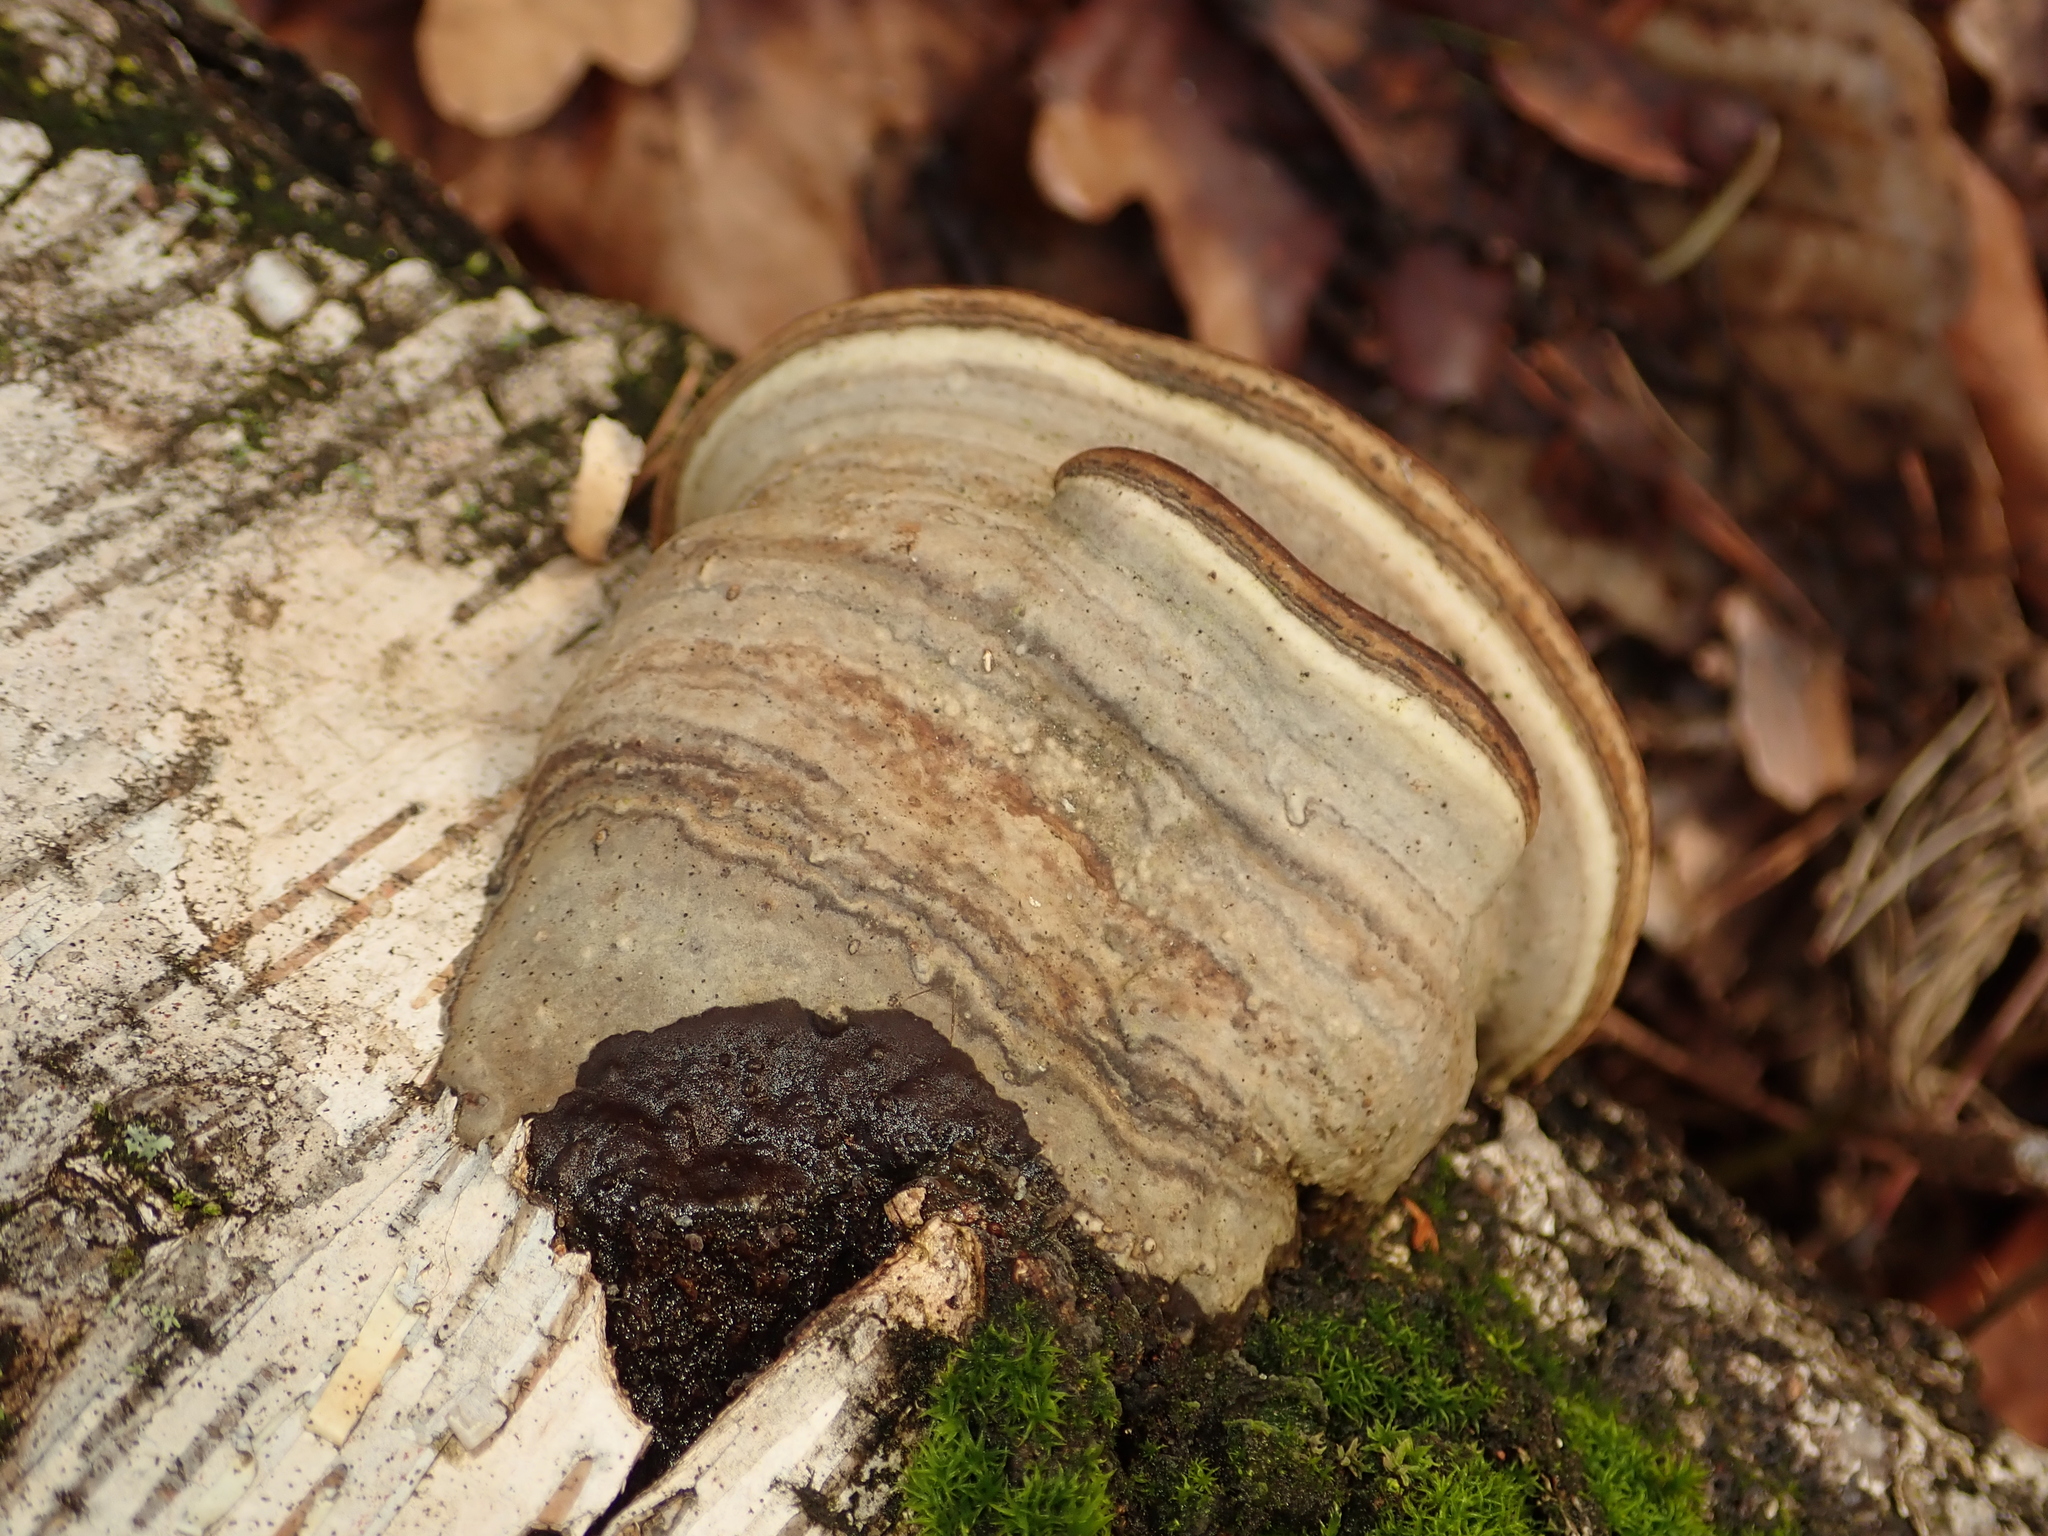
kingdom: Fungi
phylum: Basidiomycota
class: Agaricomycetes
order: Polyporales
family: Polyporaceae
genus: Fomes
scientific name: Fomes fomentarius
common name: Hoof fungus
